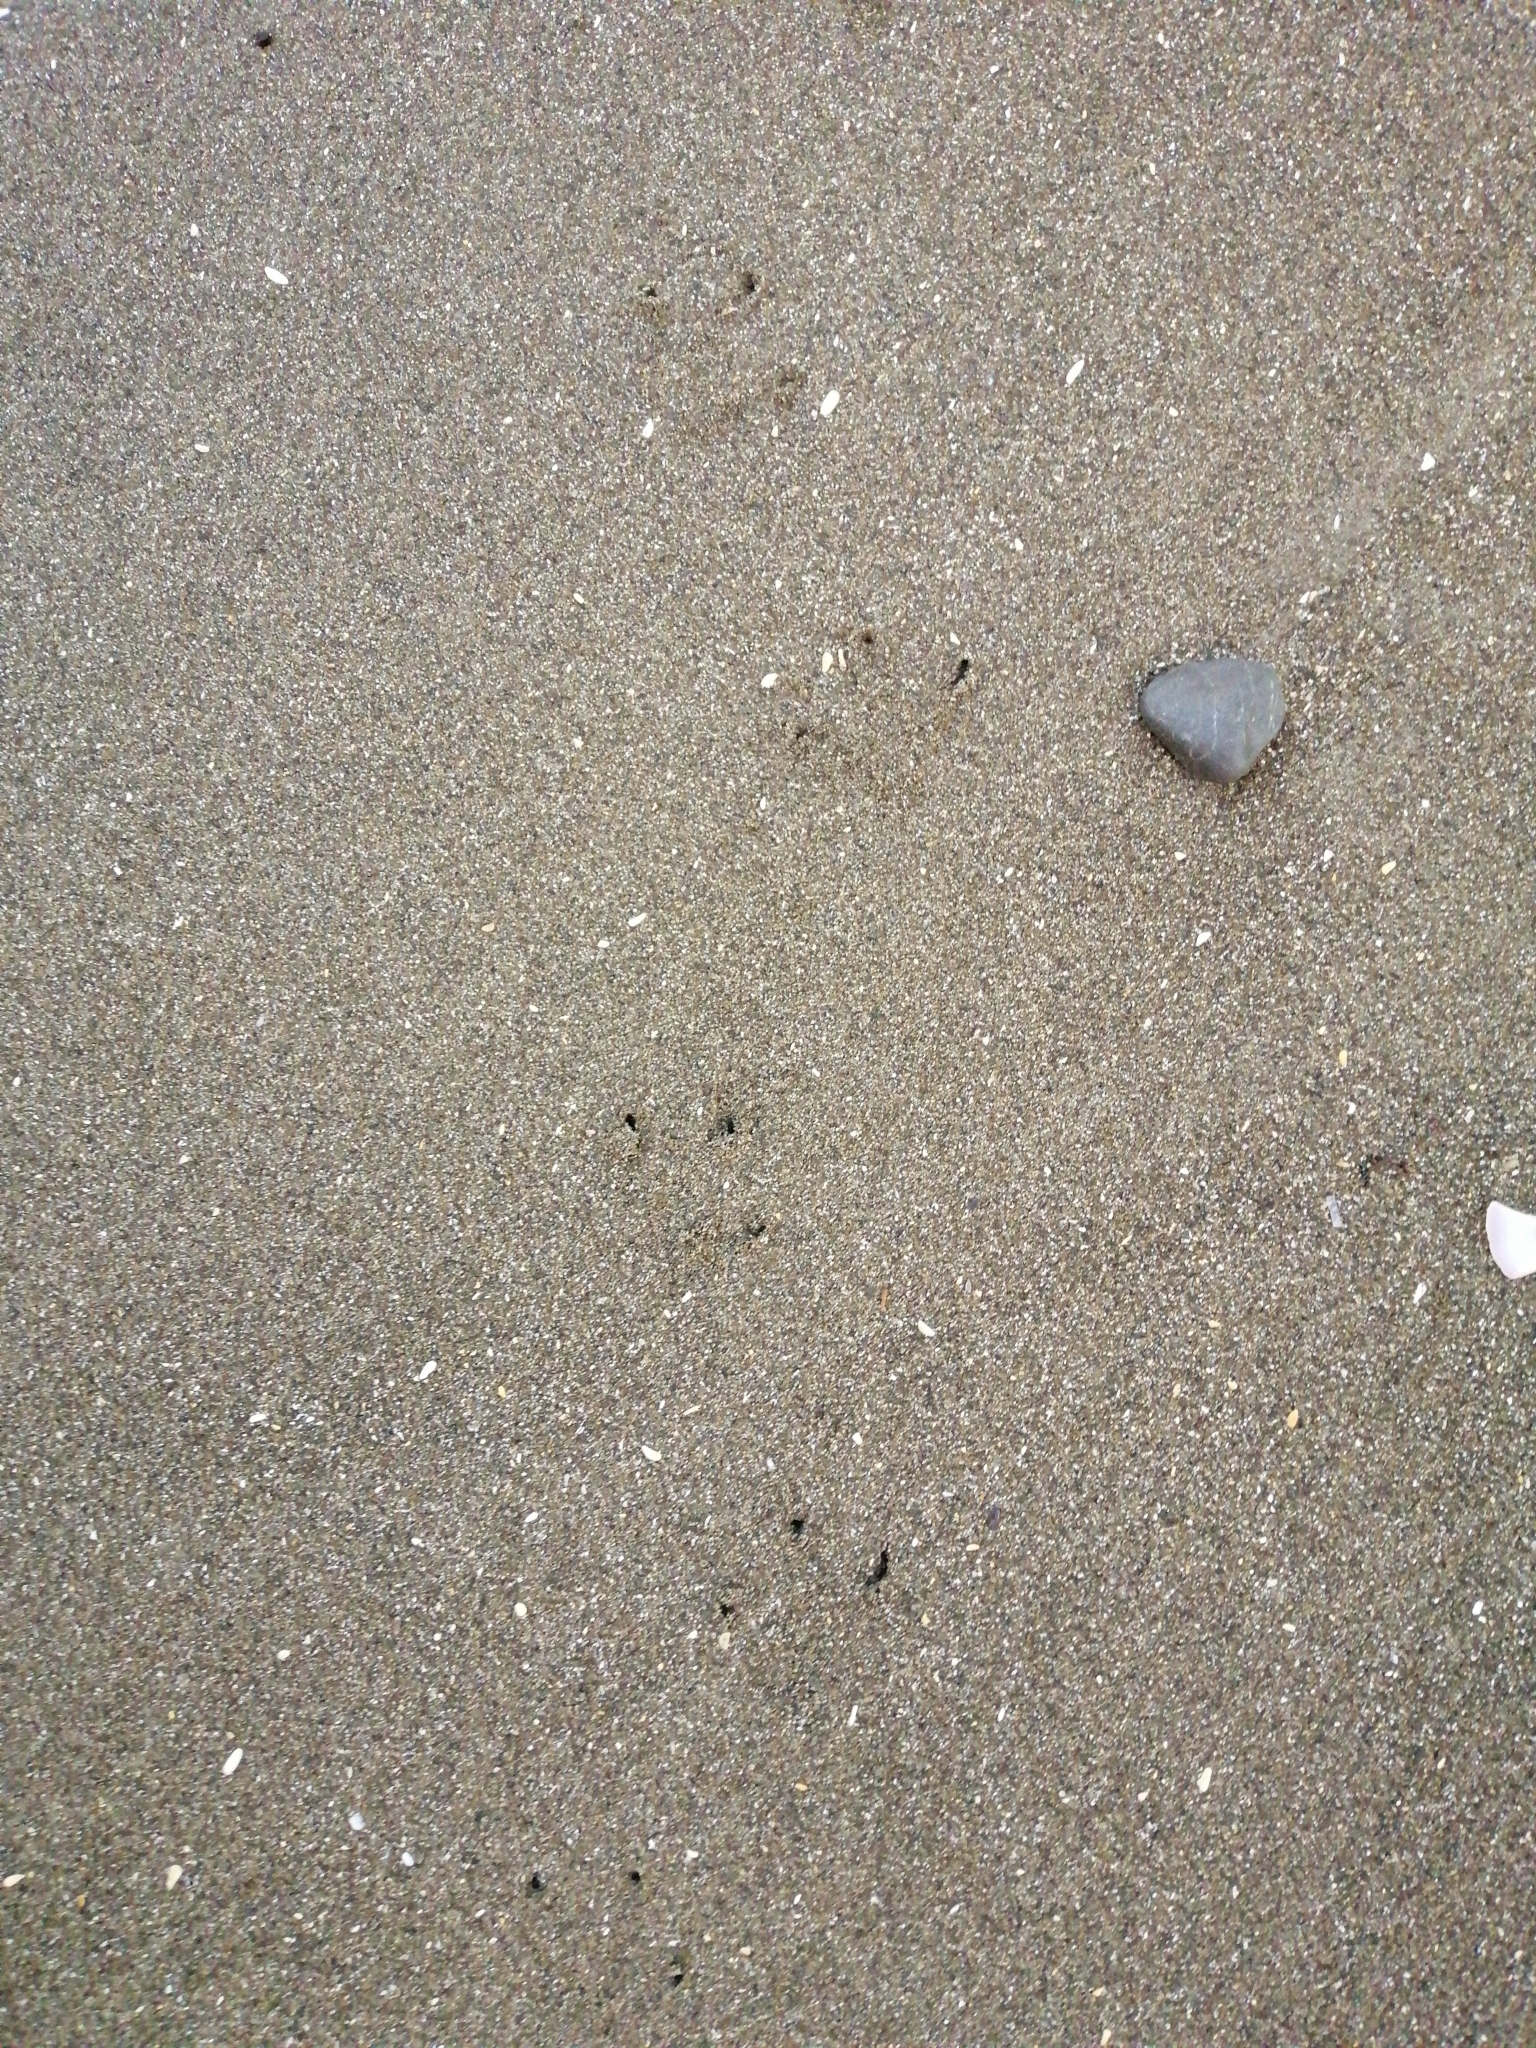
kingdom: Animalia
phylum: Chordata
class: Aves
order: Sphenisciformes
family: Spheniscidae
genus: Eudyptula
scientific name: Eudyptula minor
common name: Little penguin
